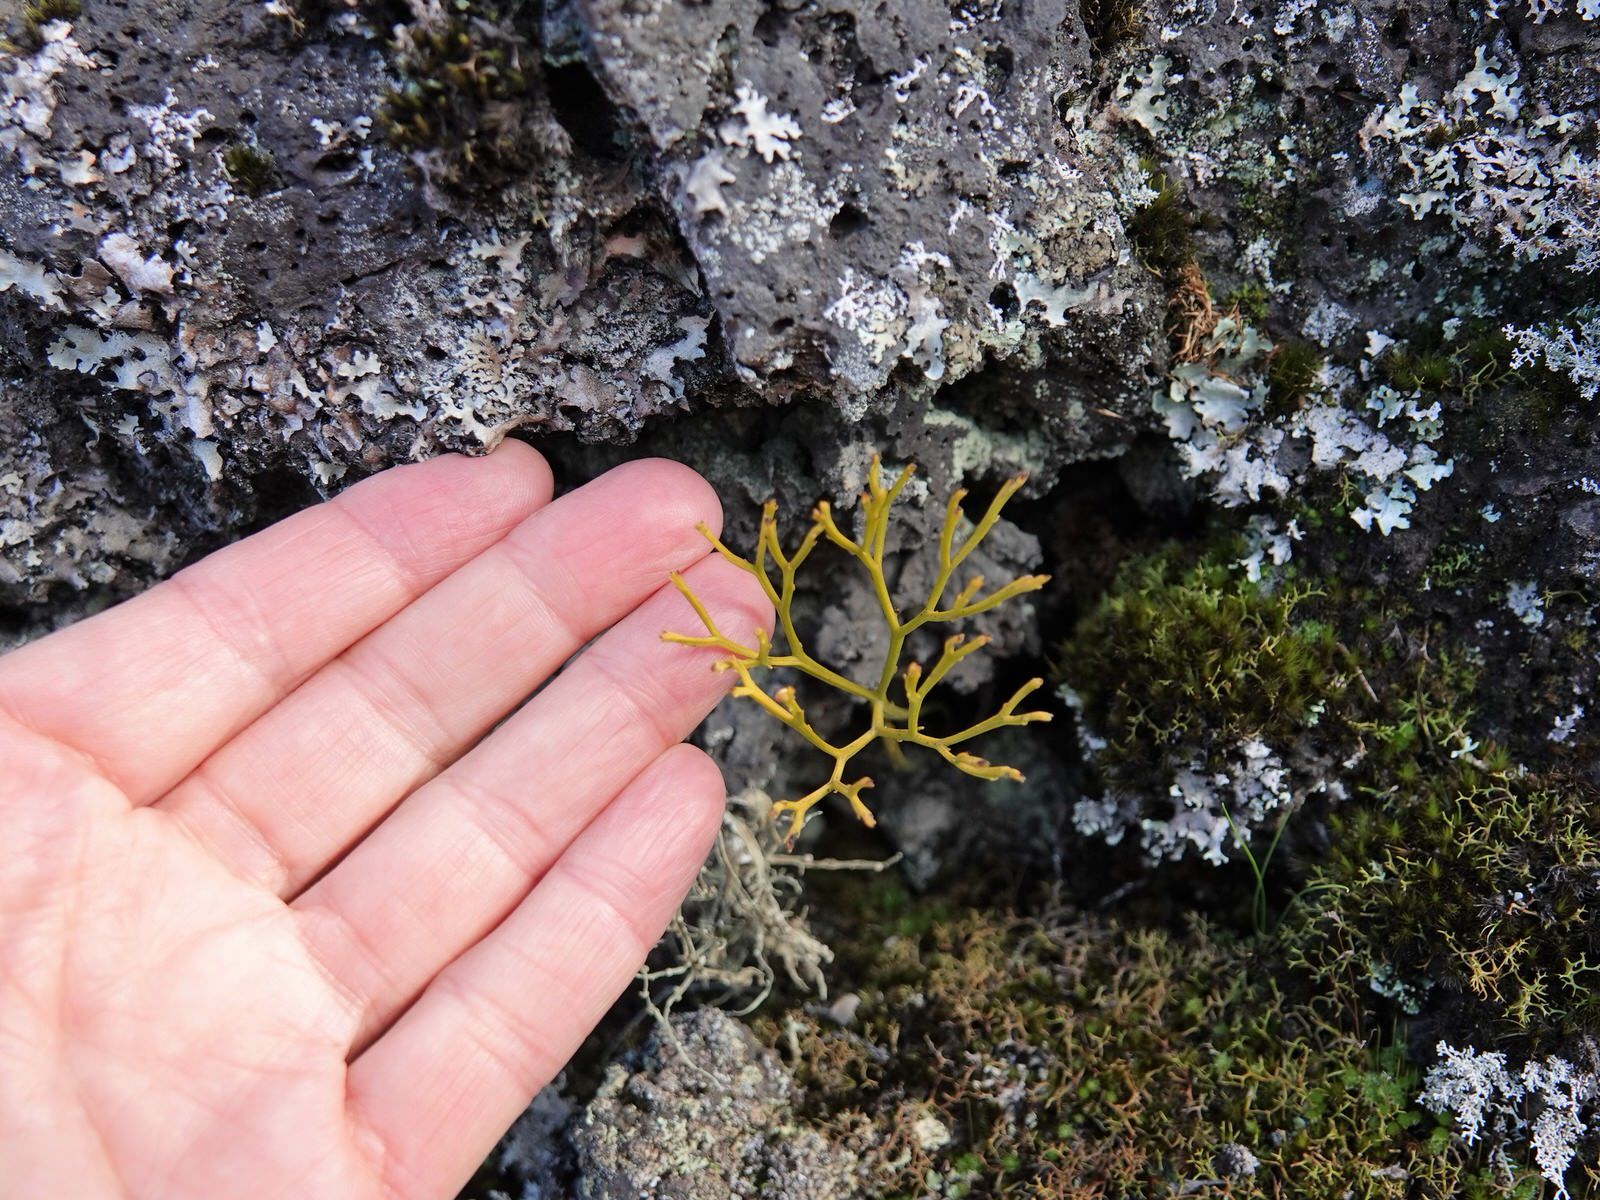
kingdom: Plantae
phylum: Tracheophyta
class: Polypodiopsida
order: Psilotales
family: Psilotaceae
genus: Psilotum
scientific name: Psilotum nudum
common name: Skeleton fork fern
